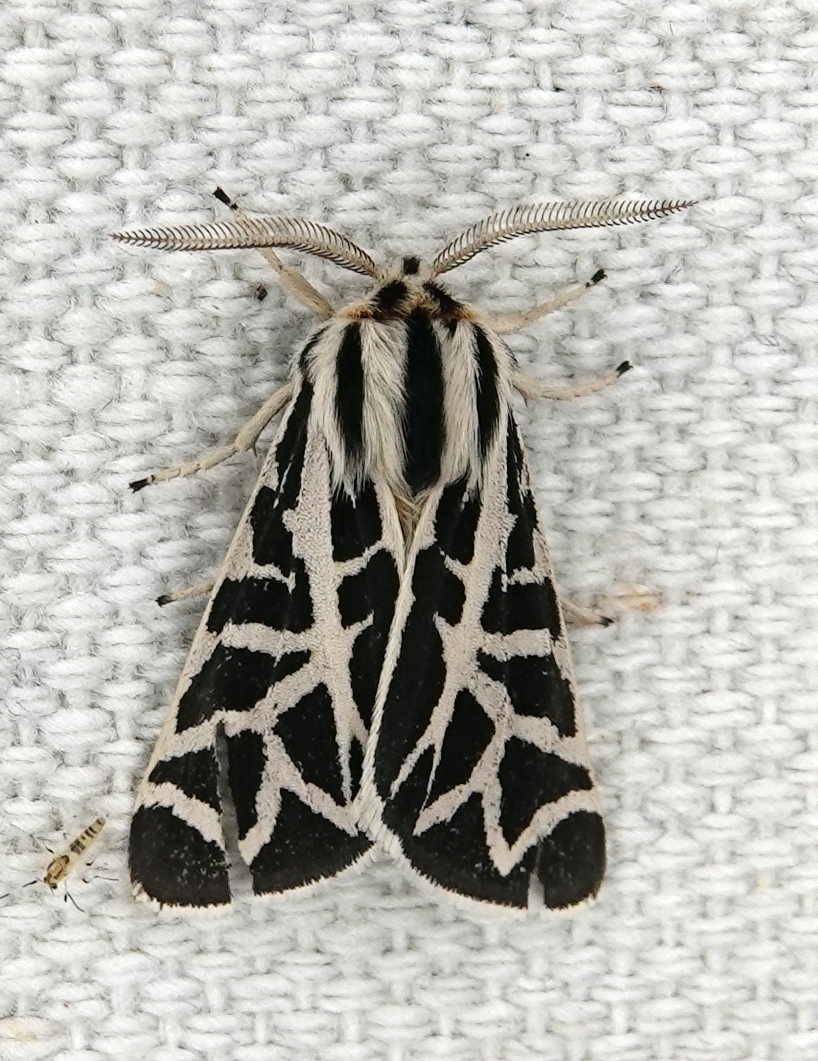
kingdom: Animalia
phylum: Arthropoda
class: Insecta
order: Lepidoptera
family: Erebidae
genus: Apantesis
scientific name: Apantesis
